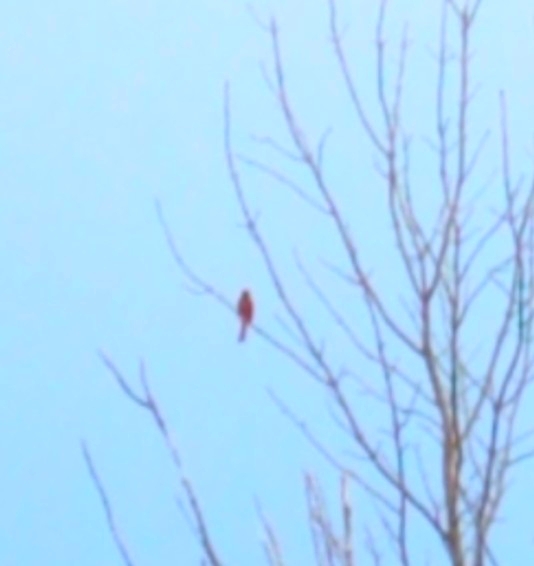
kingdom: Animalia
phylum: Chordata
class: Aves
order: Passeriformes
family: Cardinalidae
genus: Cardinalis
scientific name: Cardinalis cardinalis
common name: Northern cardinal
